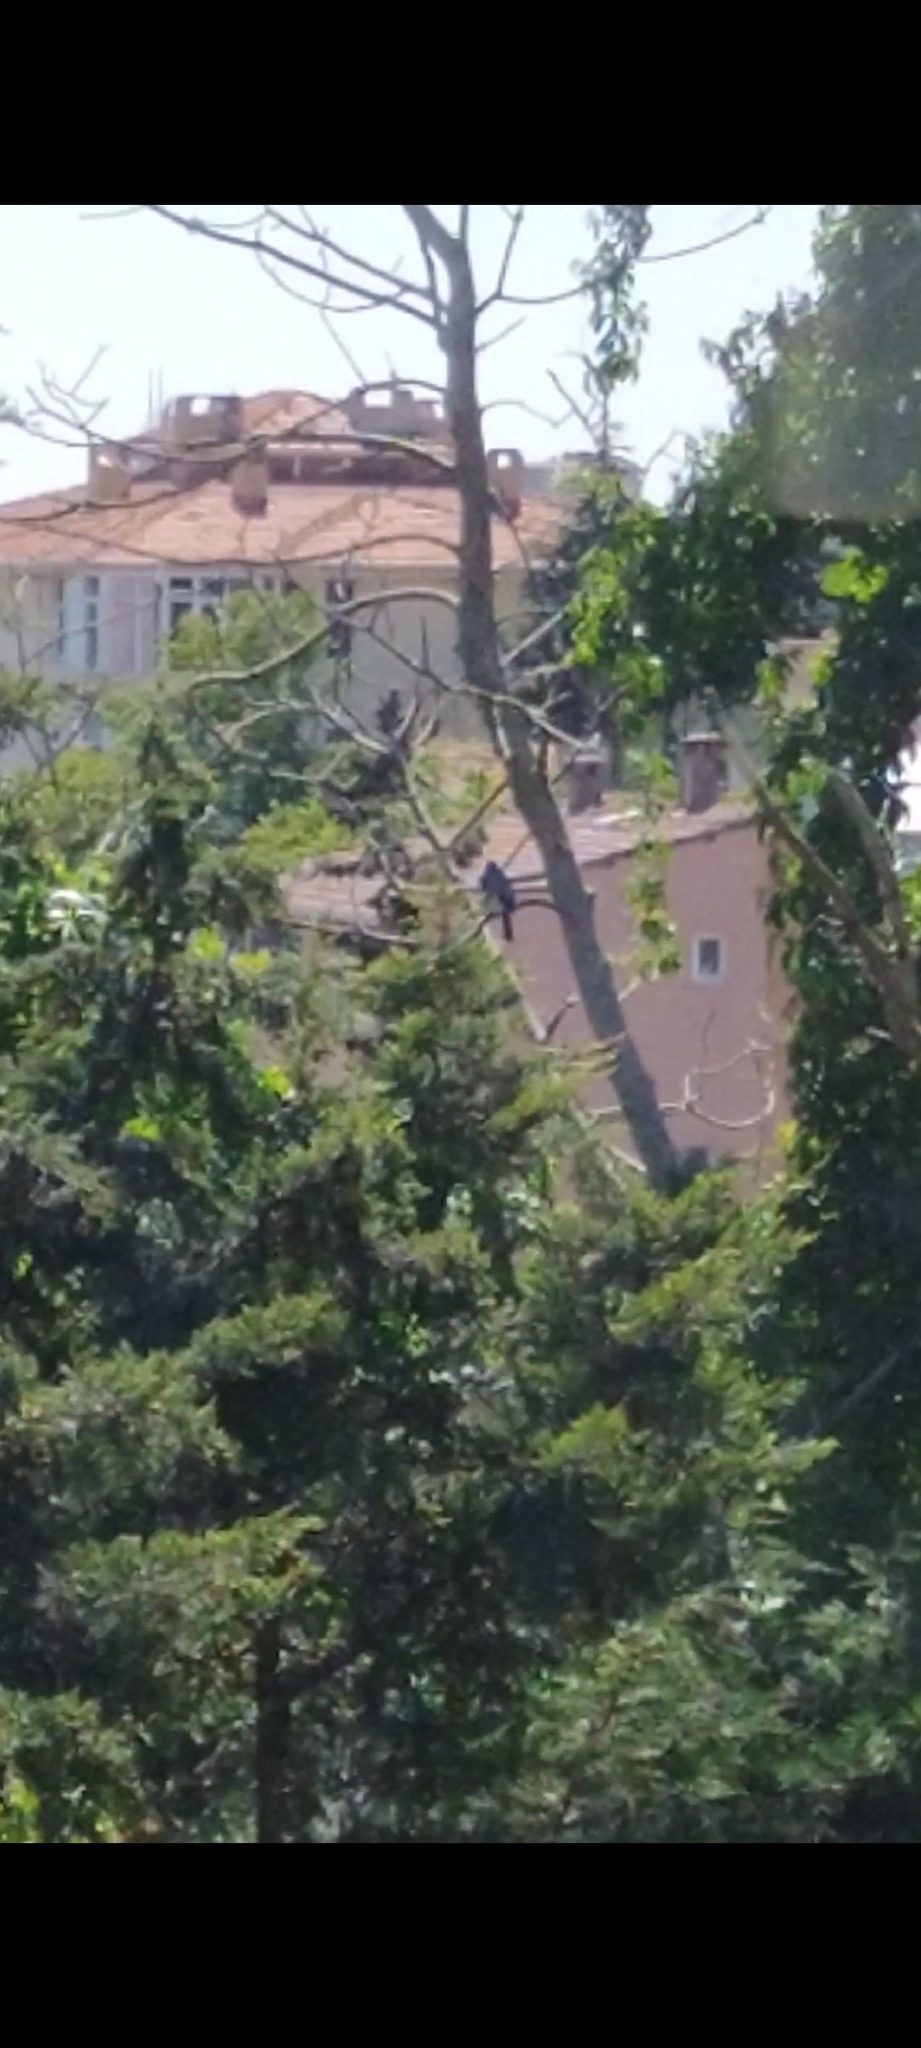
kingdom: Animalia
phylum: Chordata
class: Aves
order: Passeriformes
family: Corvidae
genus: Garrulus
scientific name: Garrulus glandarius
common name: Eurasian jay
